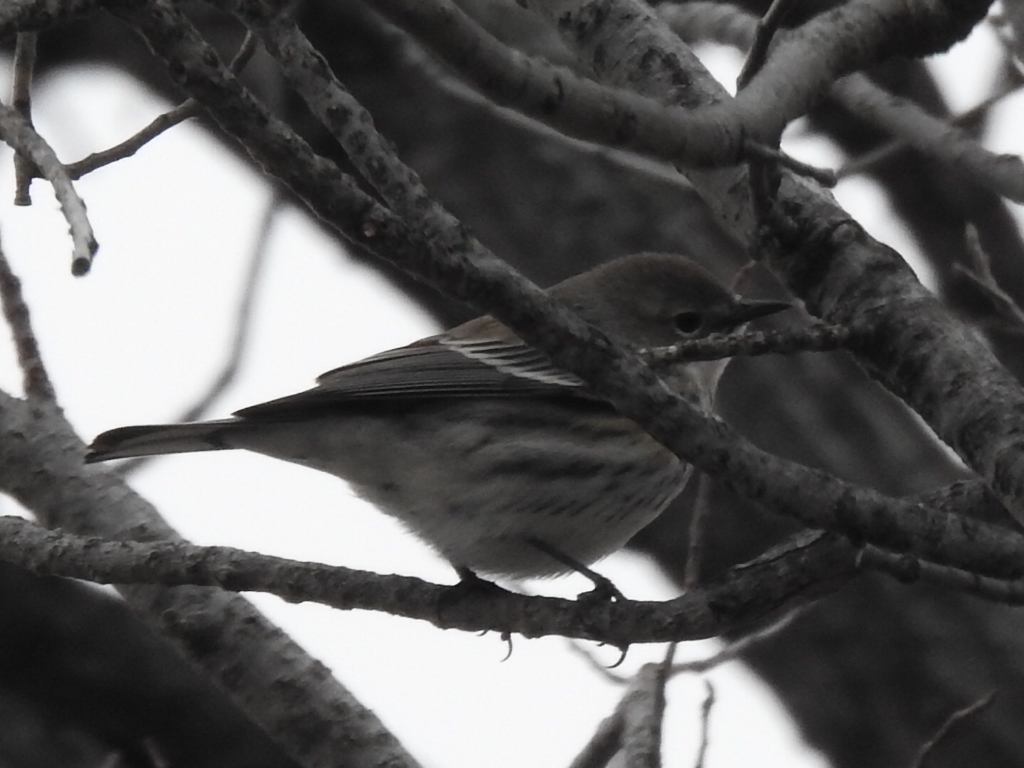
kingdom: Animalia
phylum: Chordata
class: Aves
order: Passeriformes
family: Parulidae
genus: Setophaga
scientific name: Setophaga coronata
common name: Myrtle warbler
